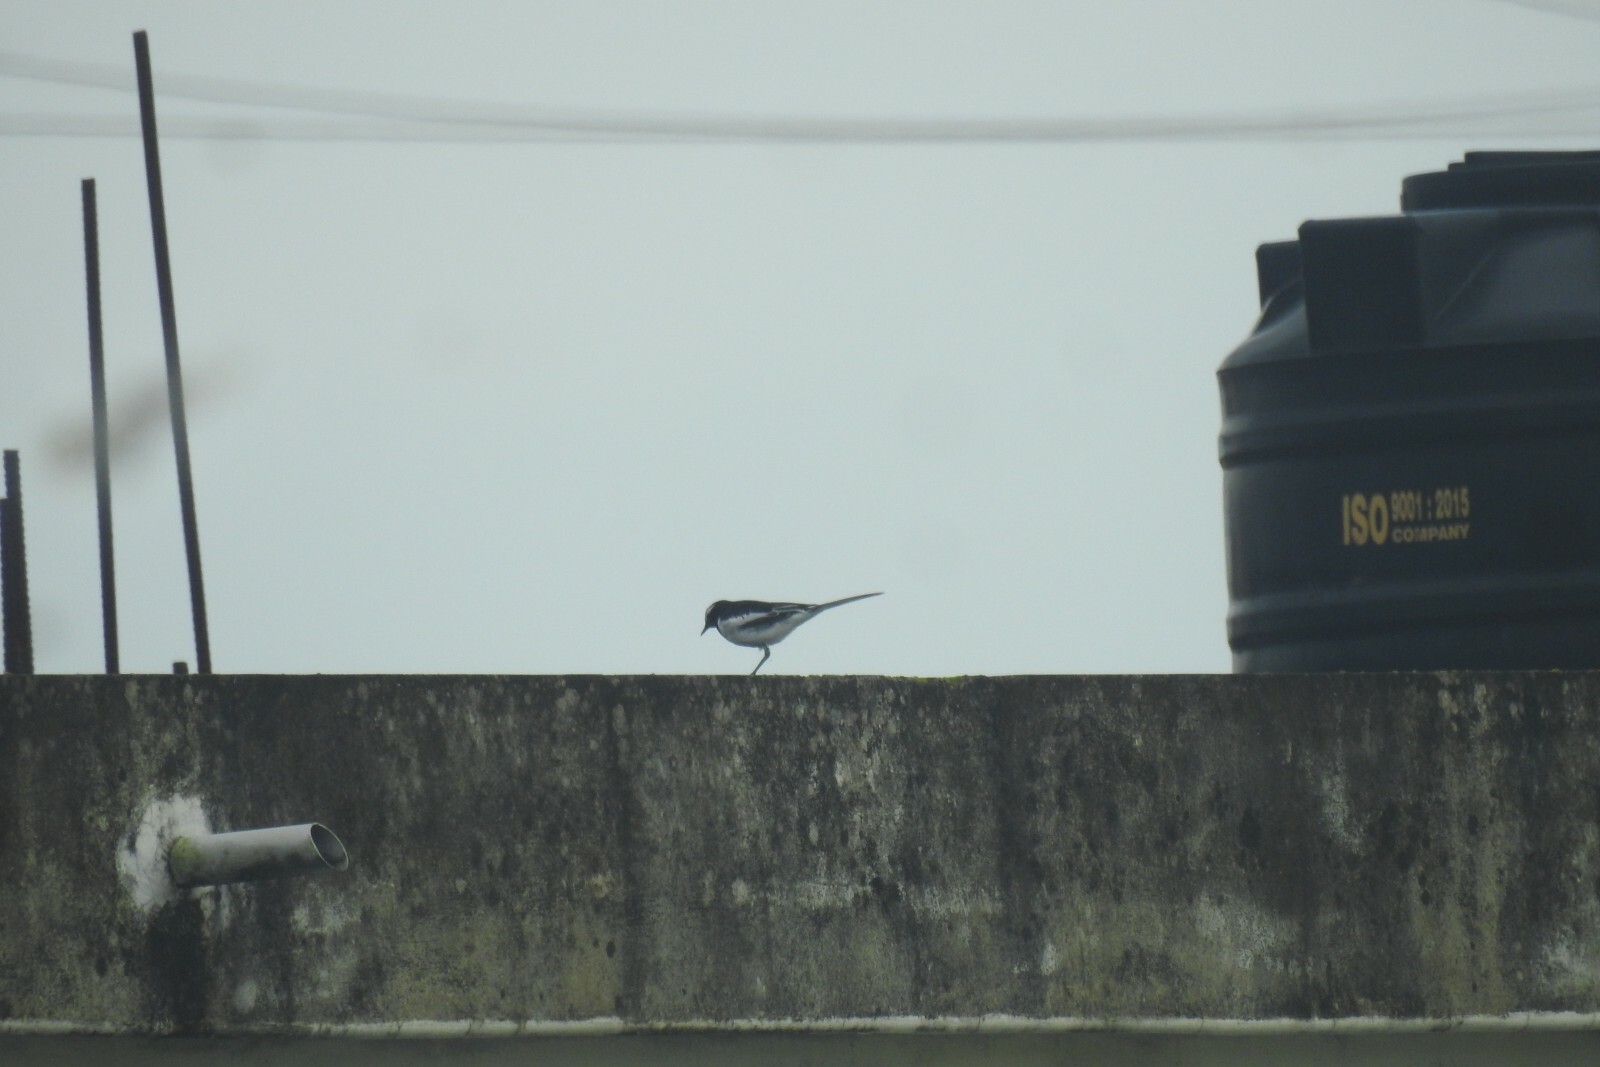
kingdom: Animalia
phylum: Chordata
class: Aves
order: Passeriformes
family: Motacillidae
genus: Motacilla
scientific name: Motacilla maderaspatensis
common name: White-browed wagtail
